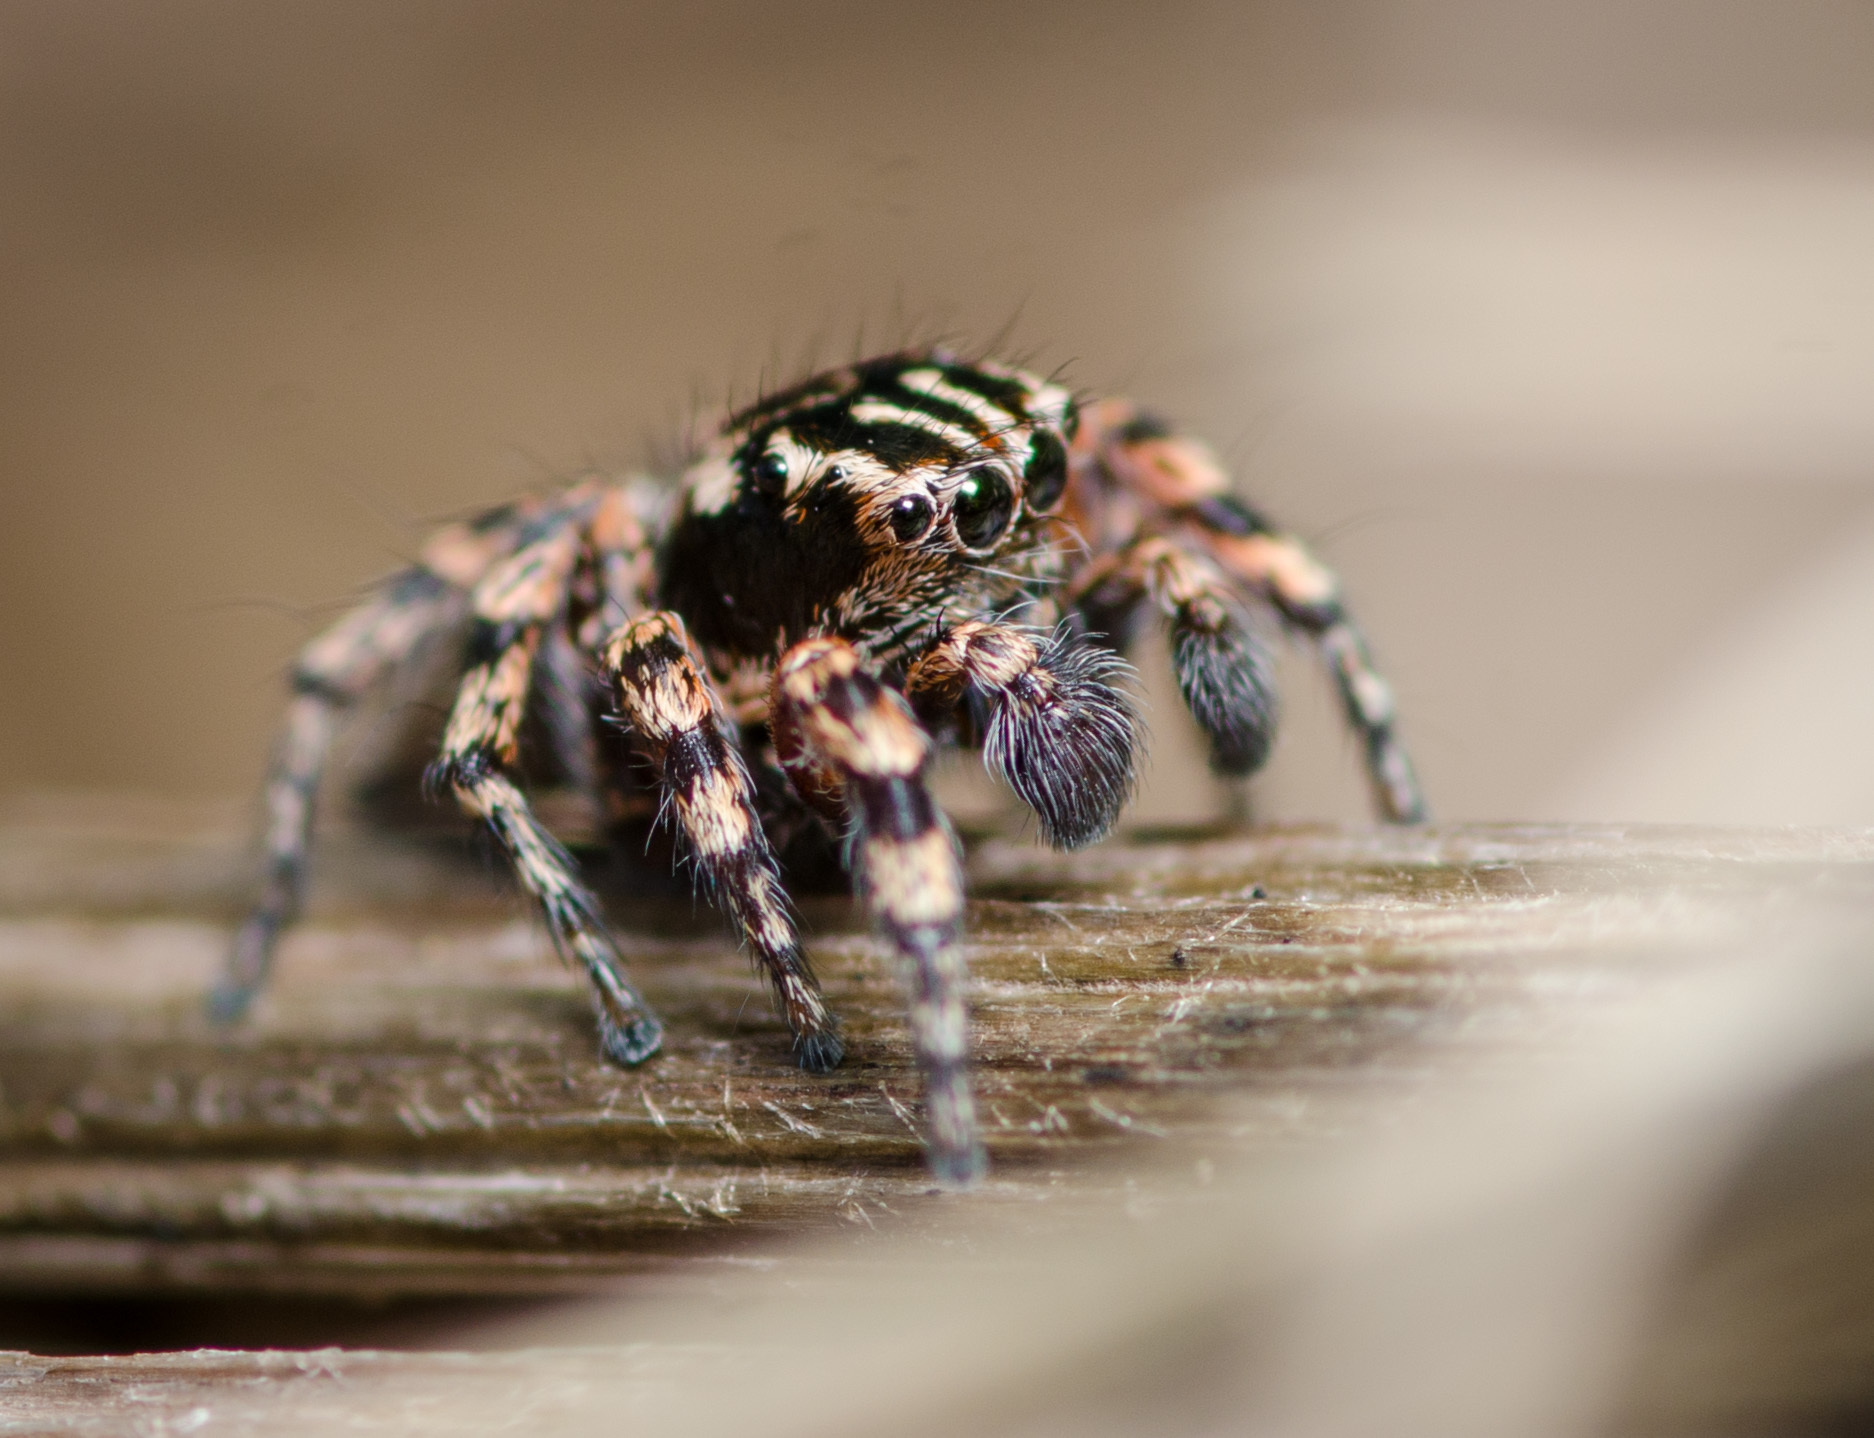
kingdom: Animalia
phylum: Arthropoda
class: Arachnida
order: Araneae
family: Salticidae
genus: Habronattus
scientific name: Habronattus fallax
